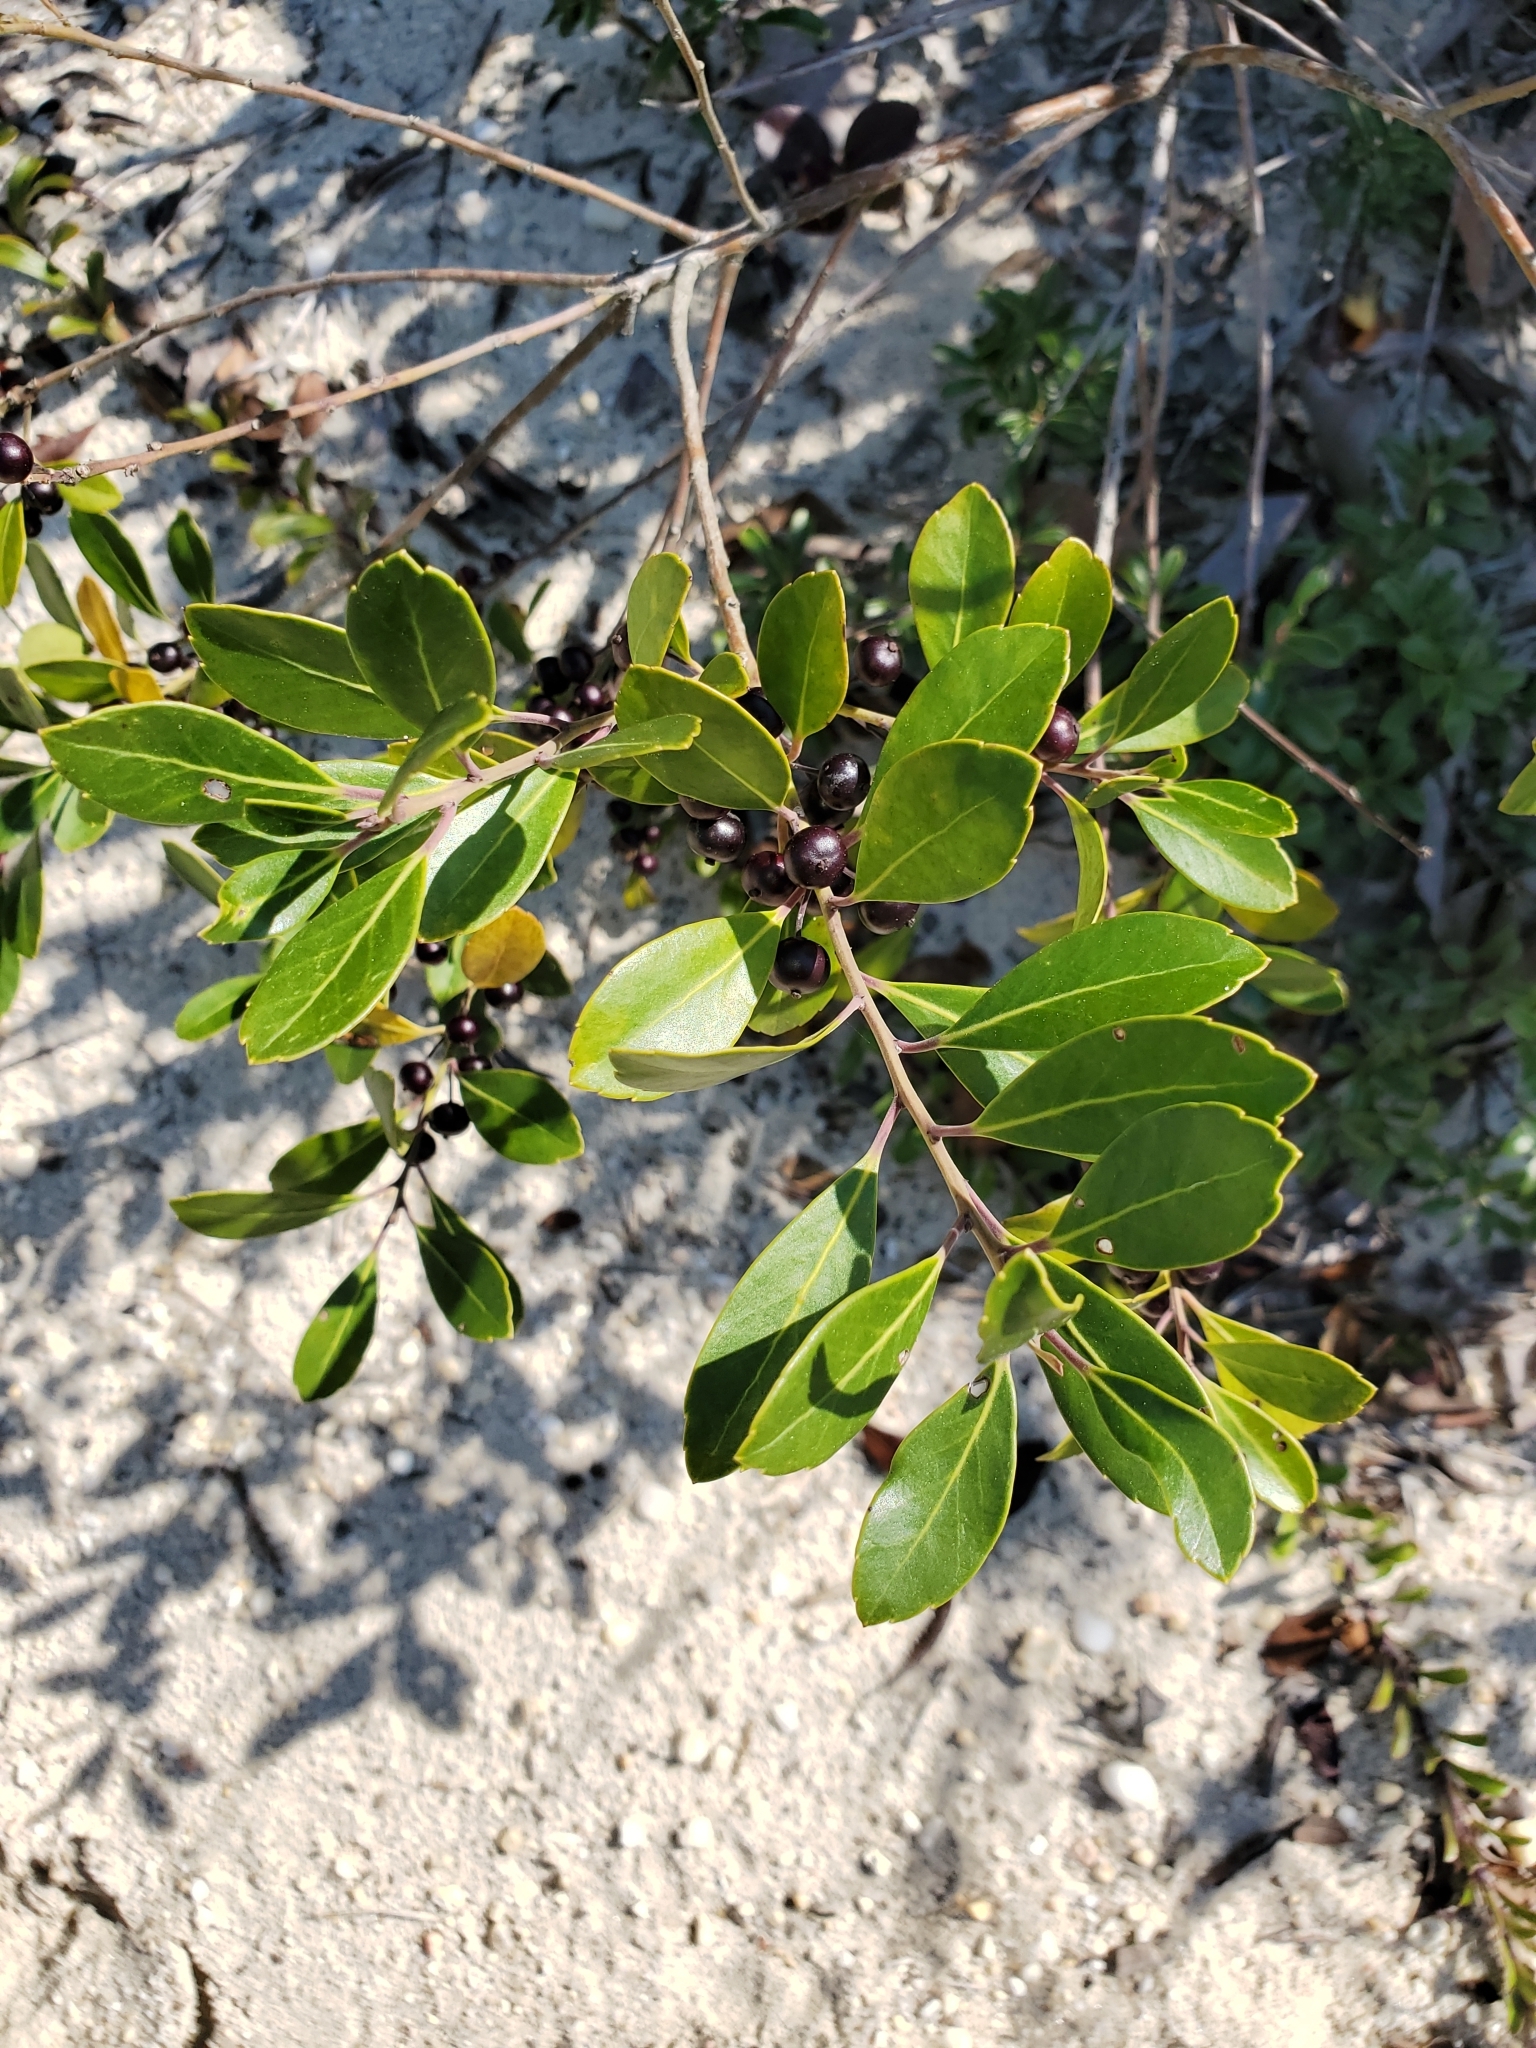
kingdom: Plantae
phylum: Tracheophyta
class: Magnoliopsida
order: Aquifoliales
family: Aquifoliaceae
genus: Ilex
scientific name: Ilex glabra
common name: Bitter gallberry
